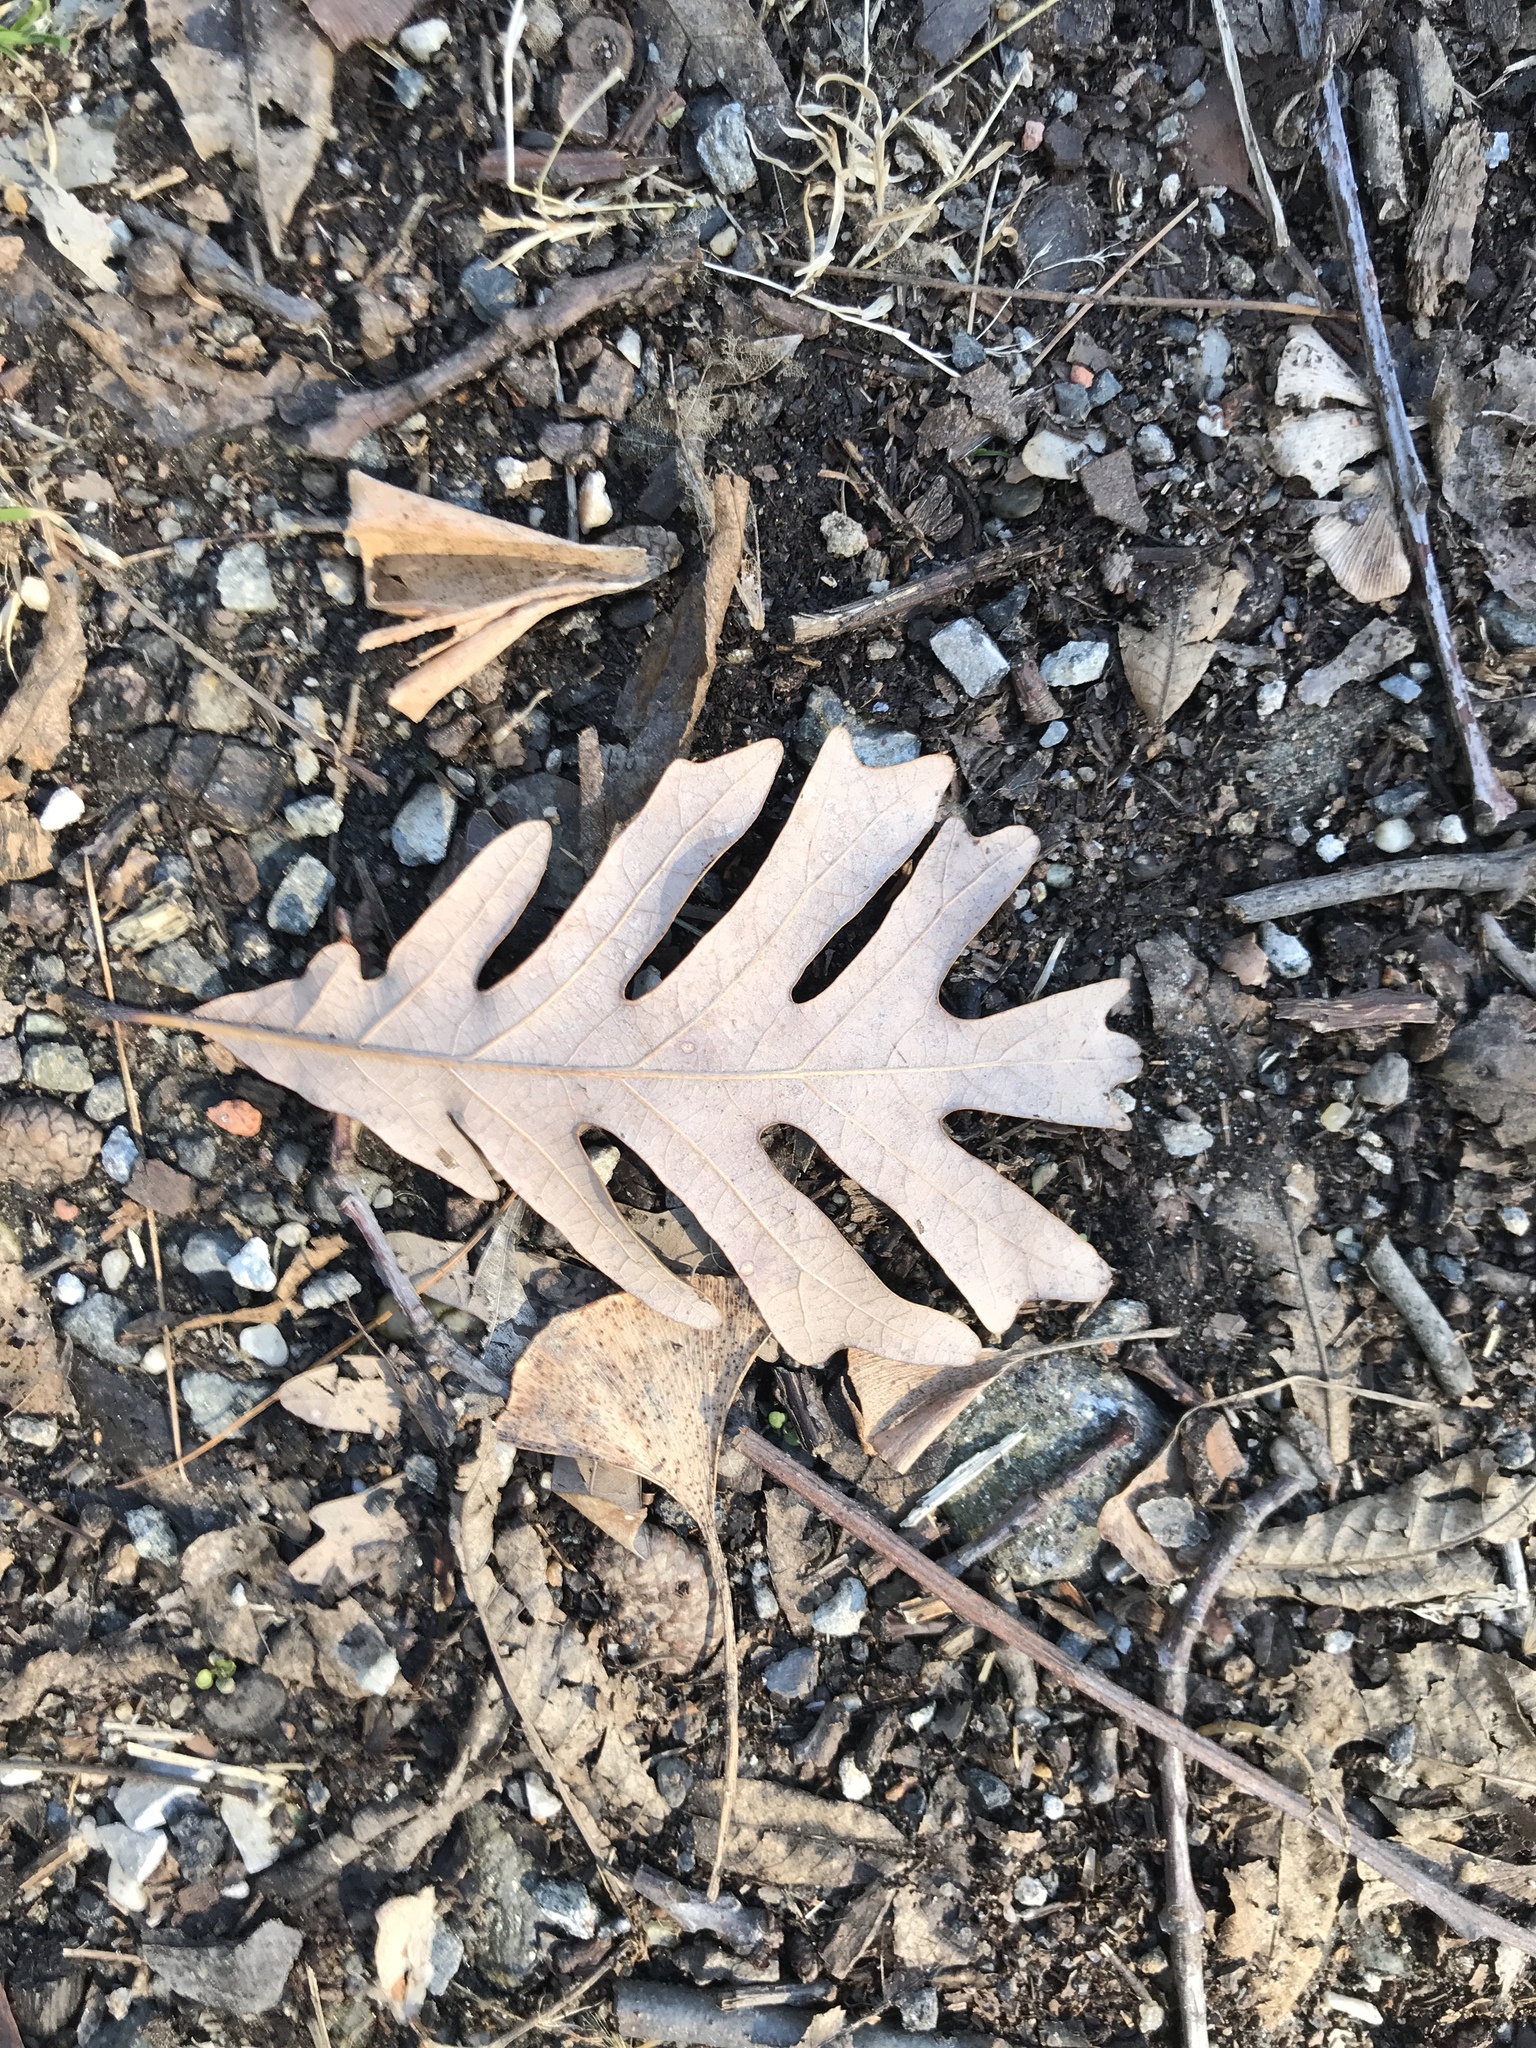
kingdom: Plantae
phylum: Tracheophyta
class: Magnoliopsida
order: Fagales
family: Fagaceae
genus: Quercus
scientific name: Quercus alba
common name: White oak
